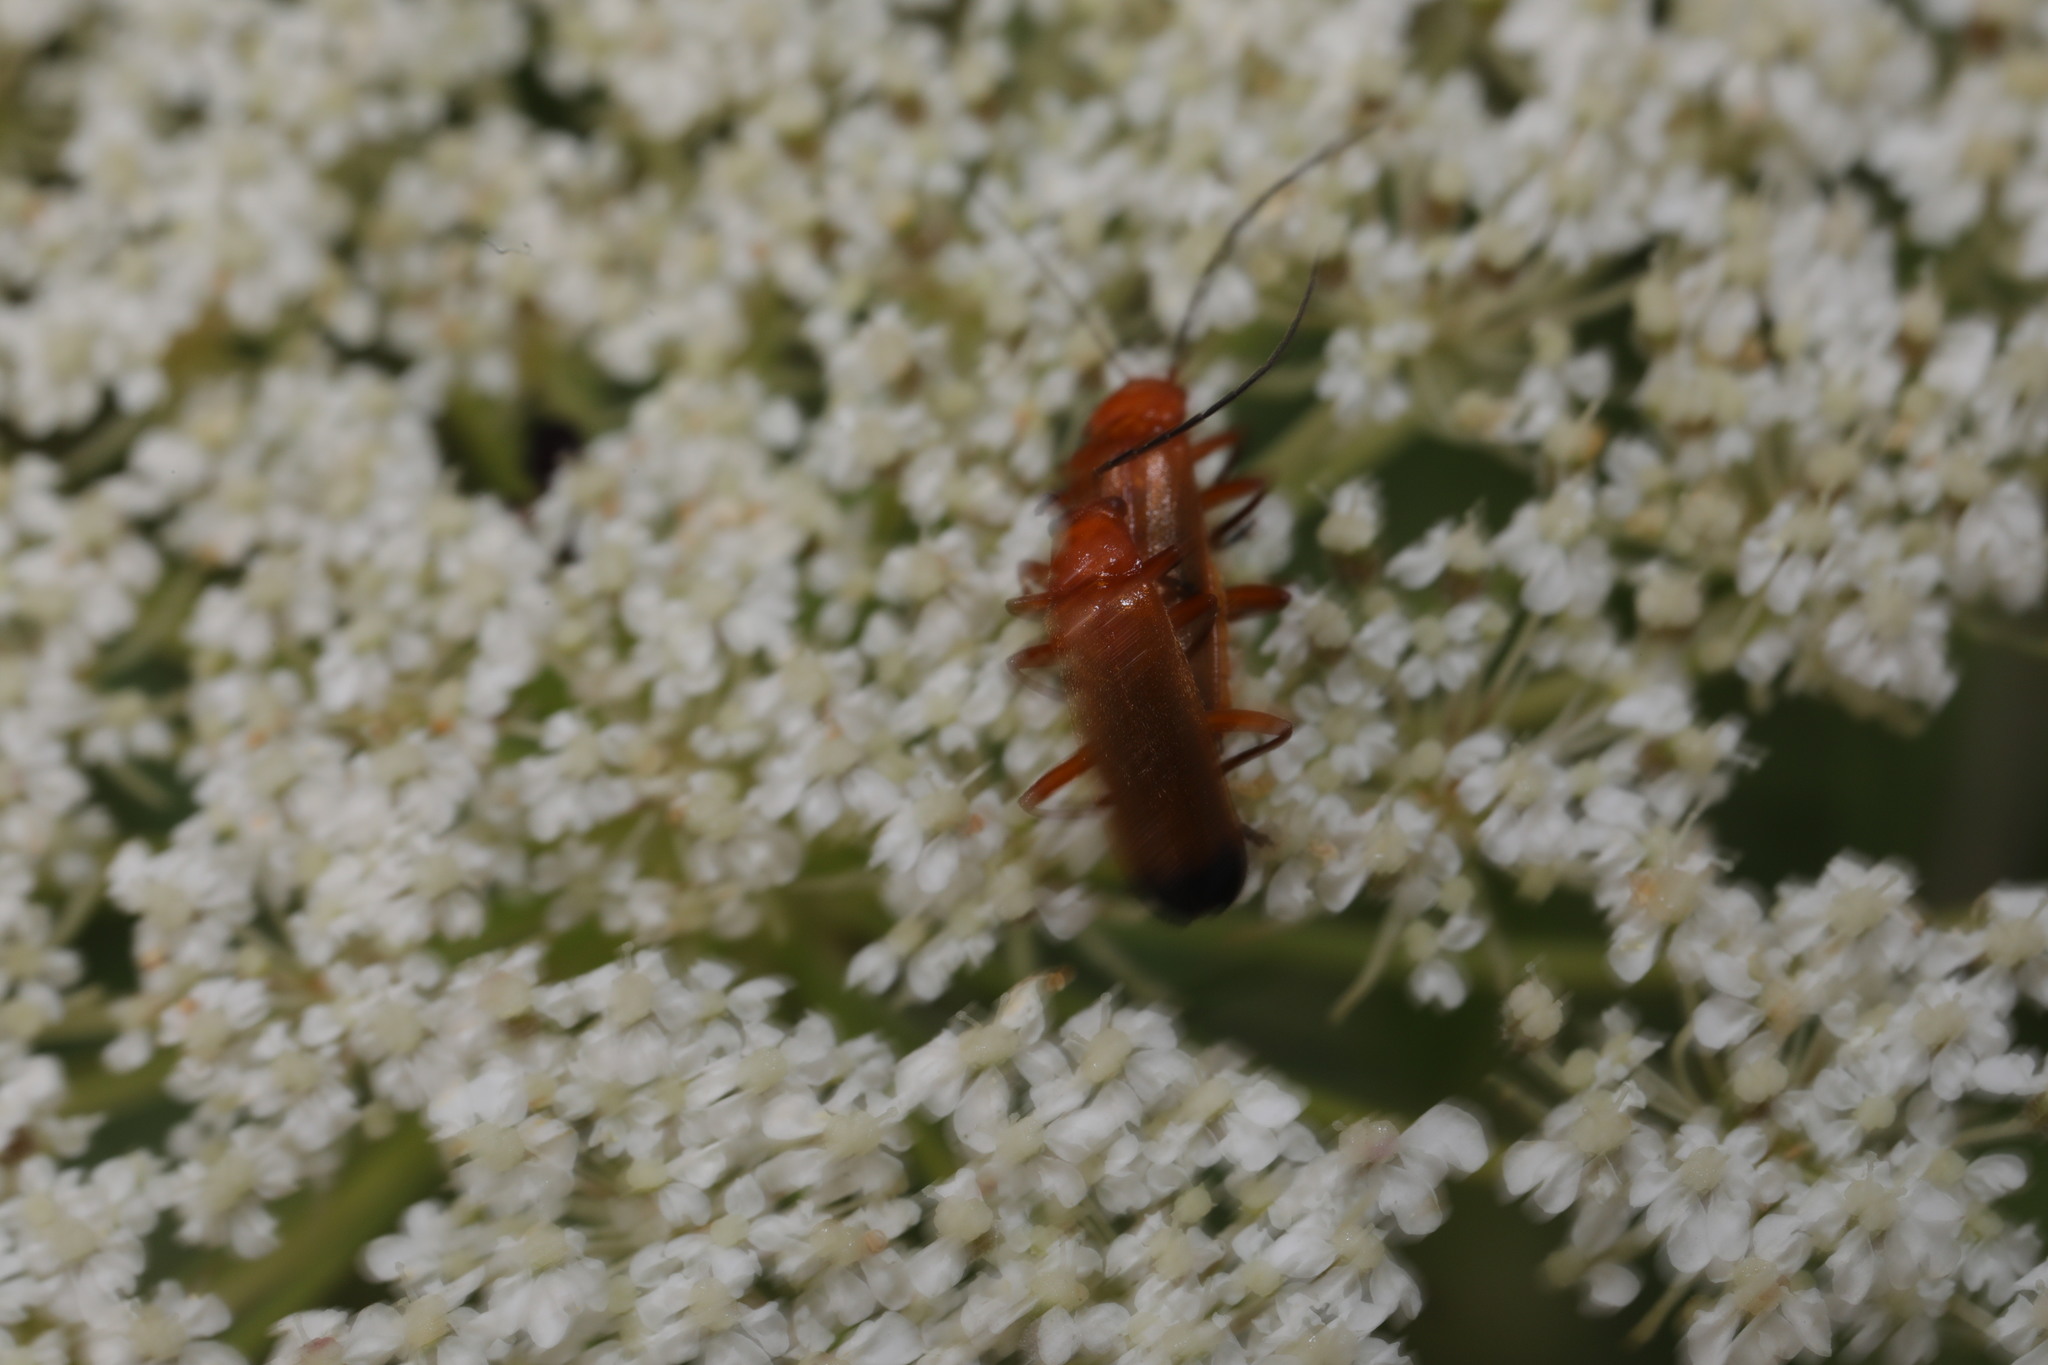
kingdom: Animalia
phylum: Arthropoda
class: Insecta
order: Coleoptera
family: Cantharidae
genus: Rhagonycha
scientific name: Rhagonycha fulva
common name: Common red soldier beetle
